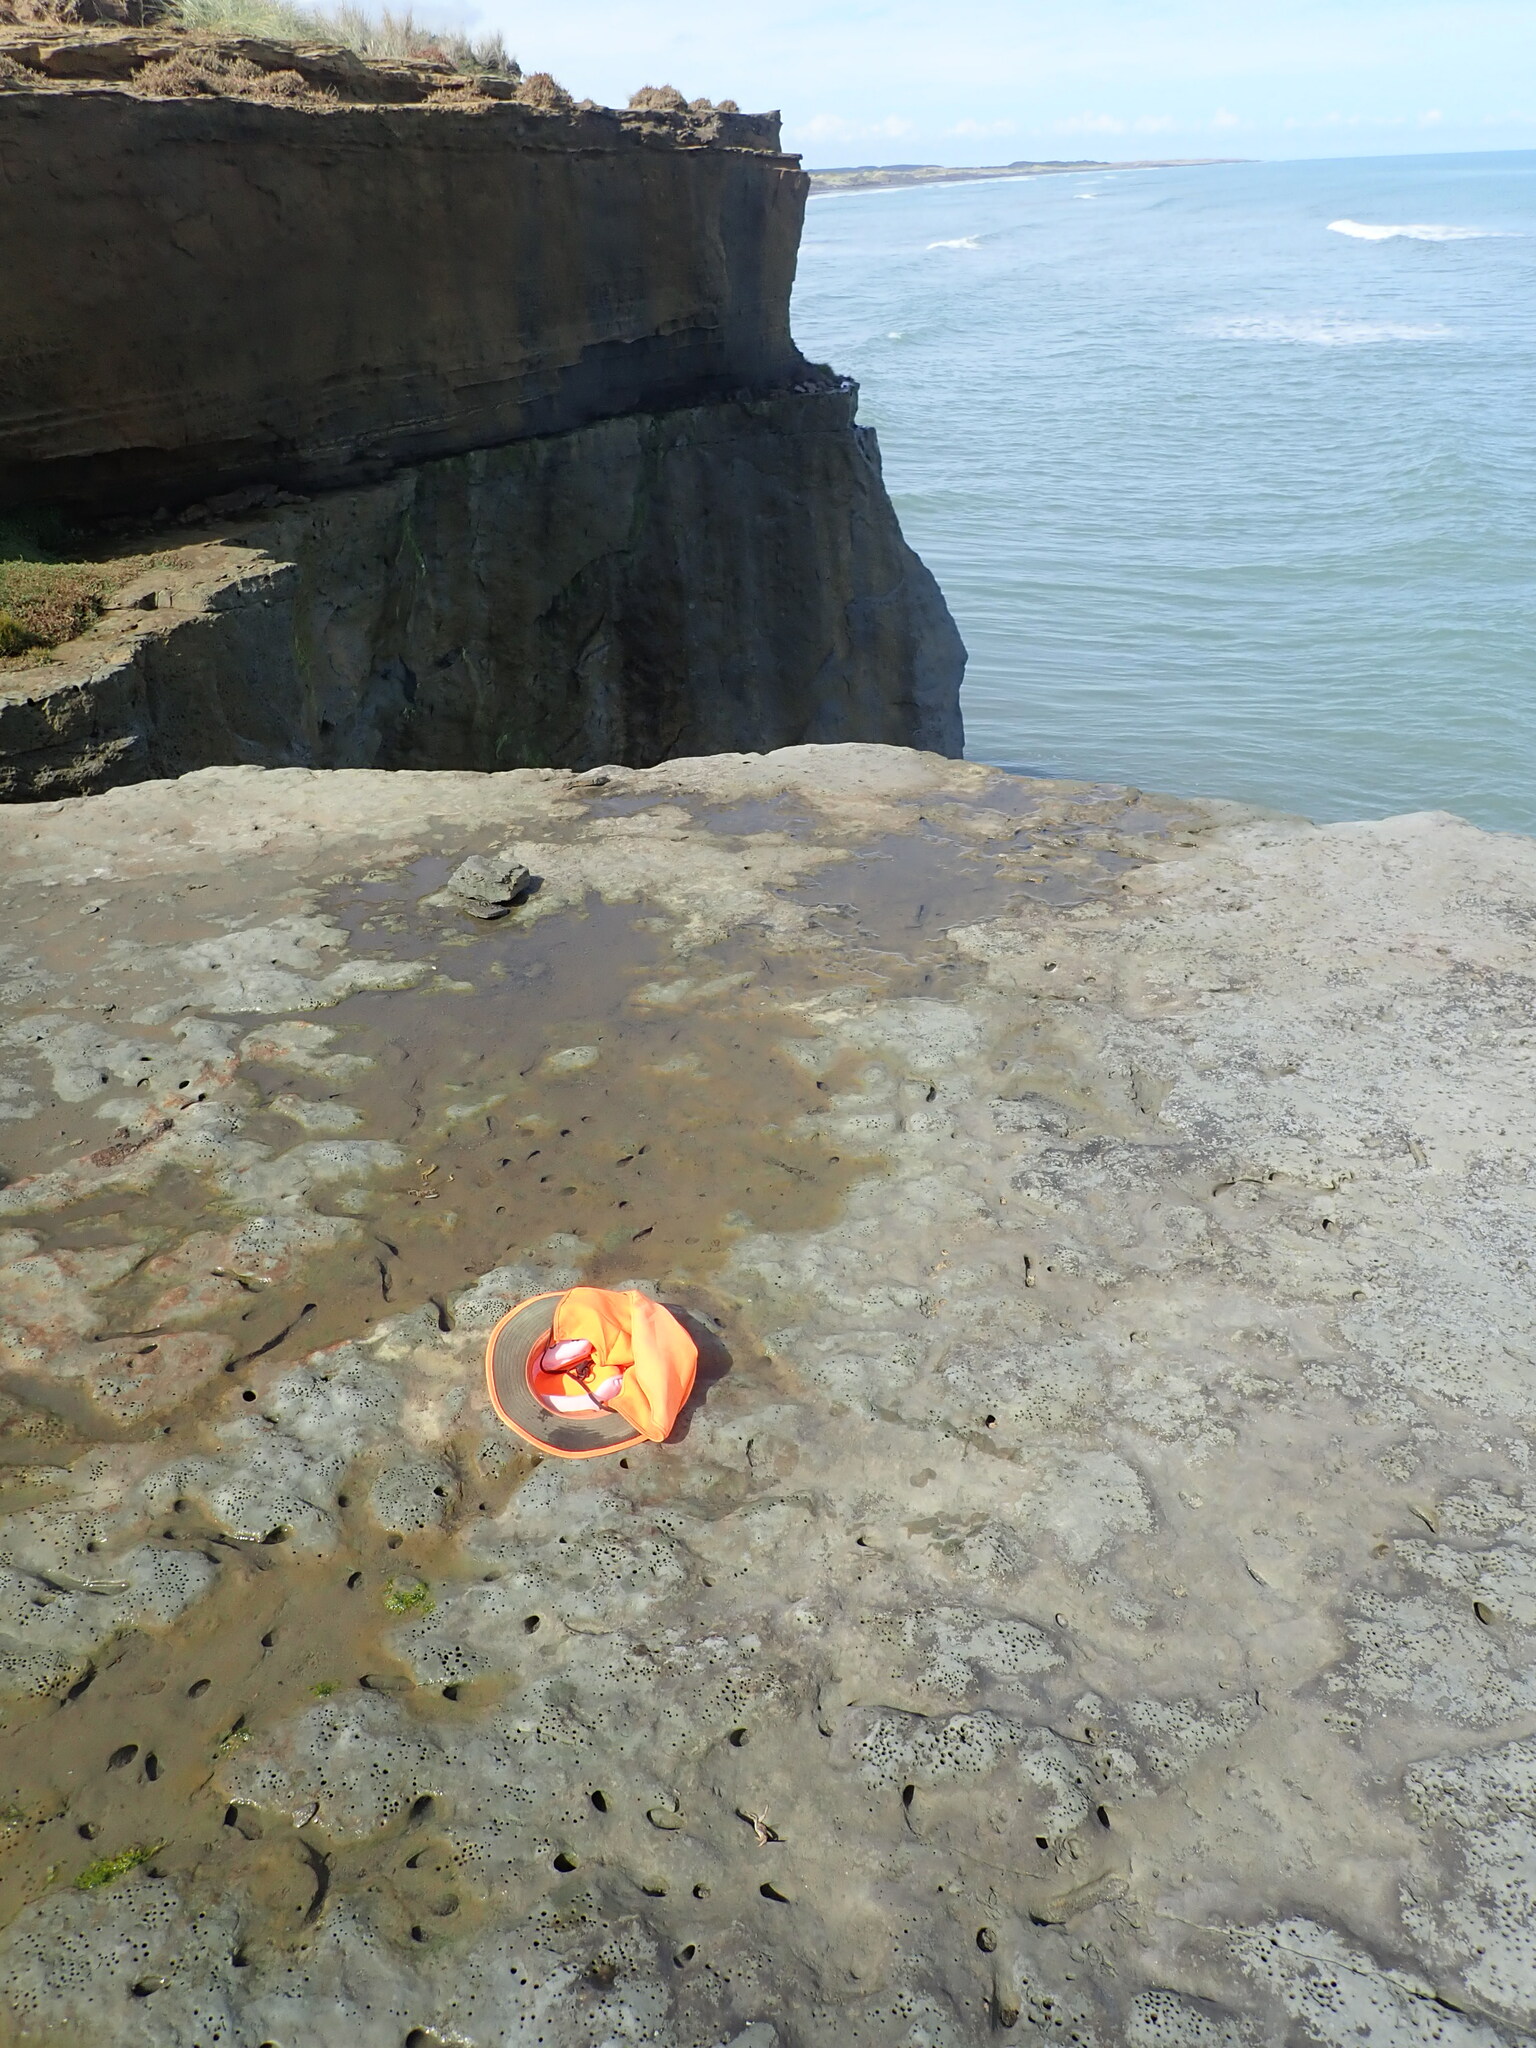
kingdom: Animalia
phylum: Arthropoda
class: Malacostraca
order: Decapoda
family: Grapsidae
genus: Leptograpsus
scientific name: Leptograpsus variegatus
